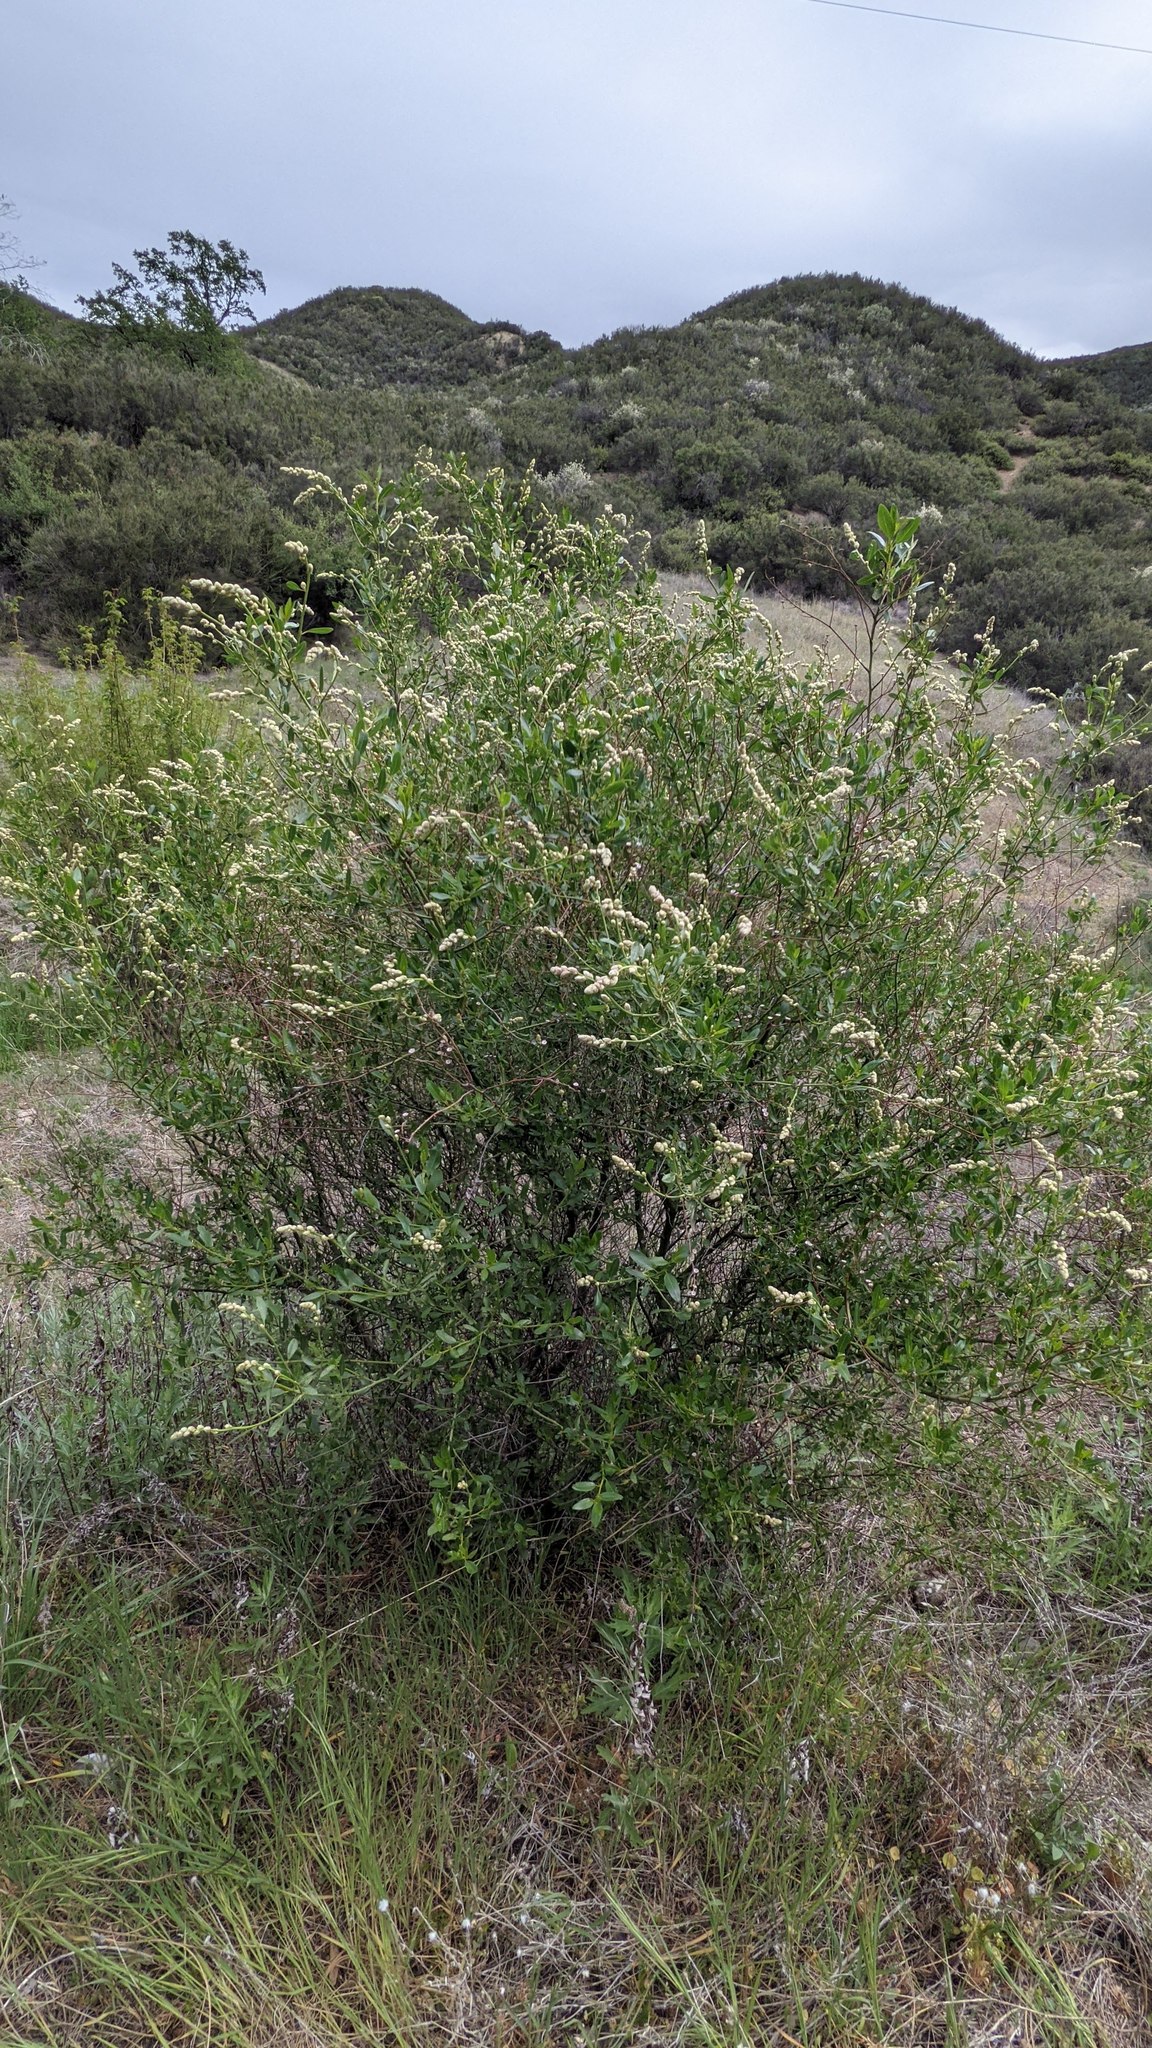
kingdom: Plantae
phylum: Tracheophyta
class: Magnoliopsida
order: Rosales
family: Rhamnaceae
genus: Ceanothus
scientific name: Ceanothus palmeri
